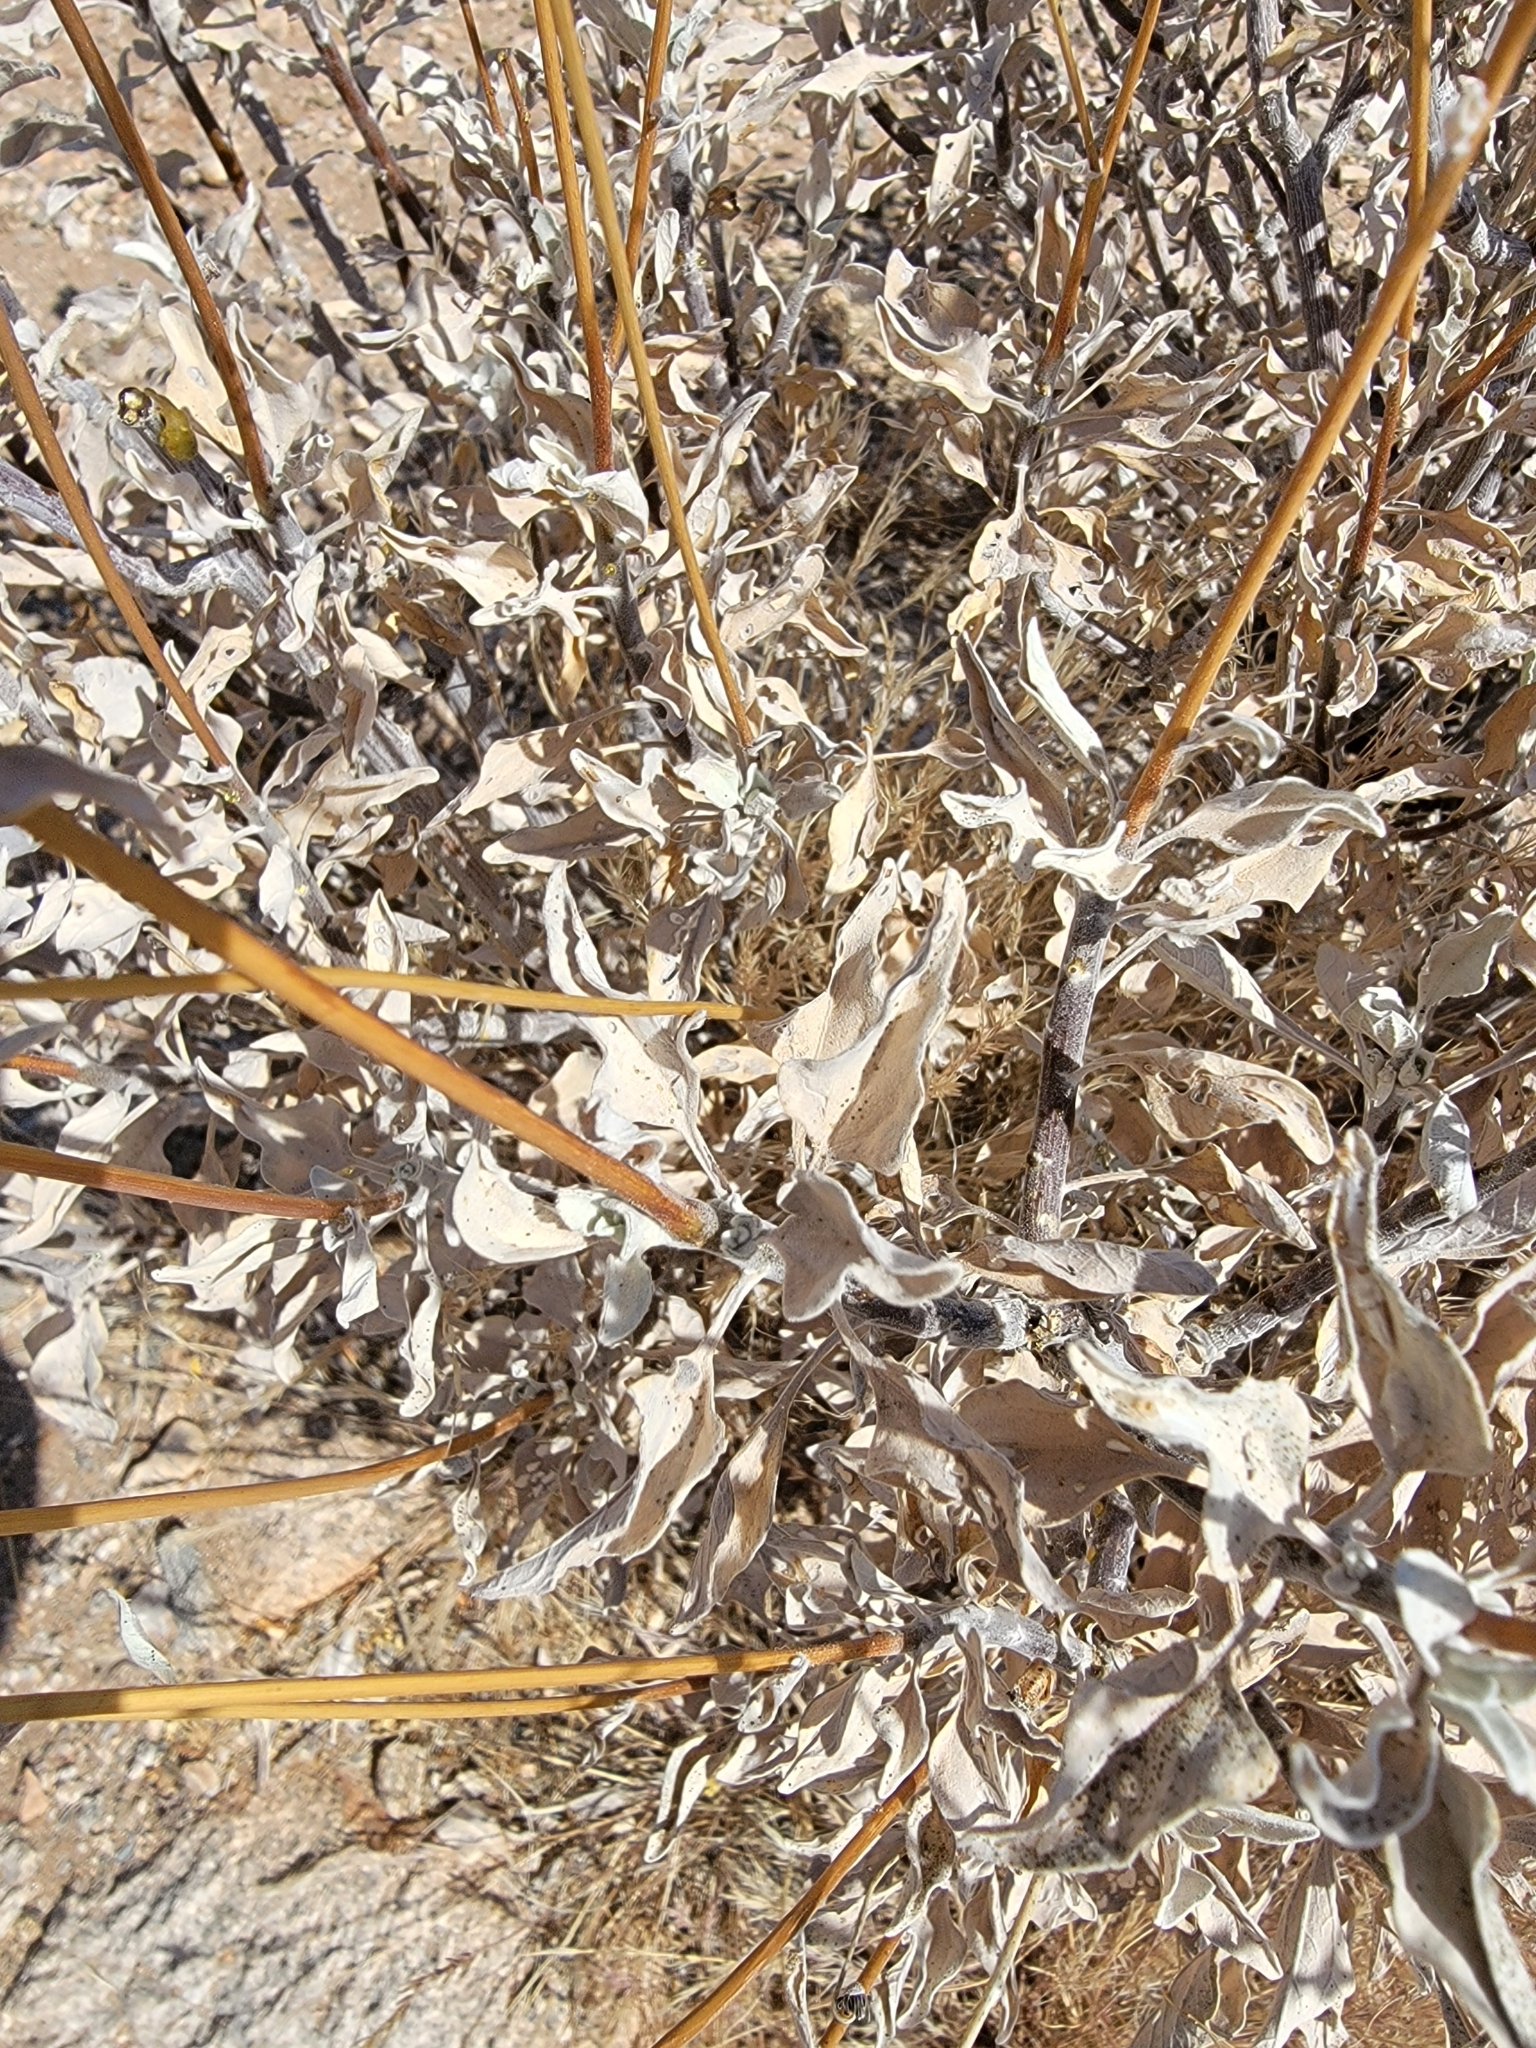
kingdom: Plantae
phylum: Tracheophyta
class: Magnoliopsida
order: Asterales
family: Asteraceae
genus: Encelia
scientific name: Encelia farinosa
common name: Brittlebush
